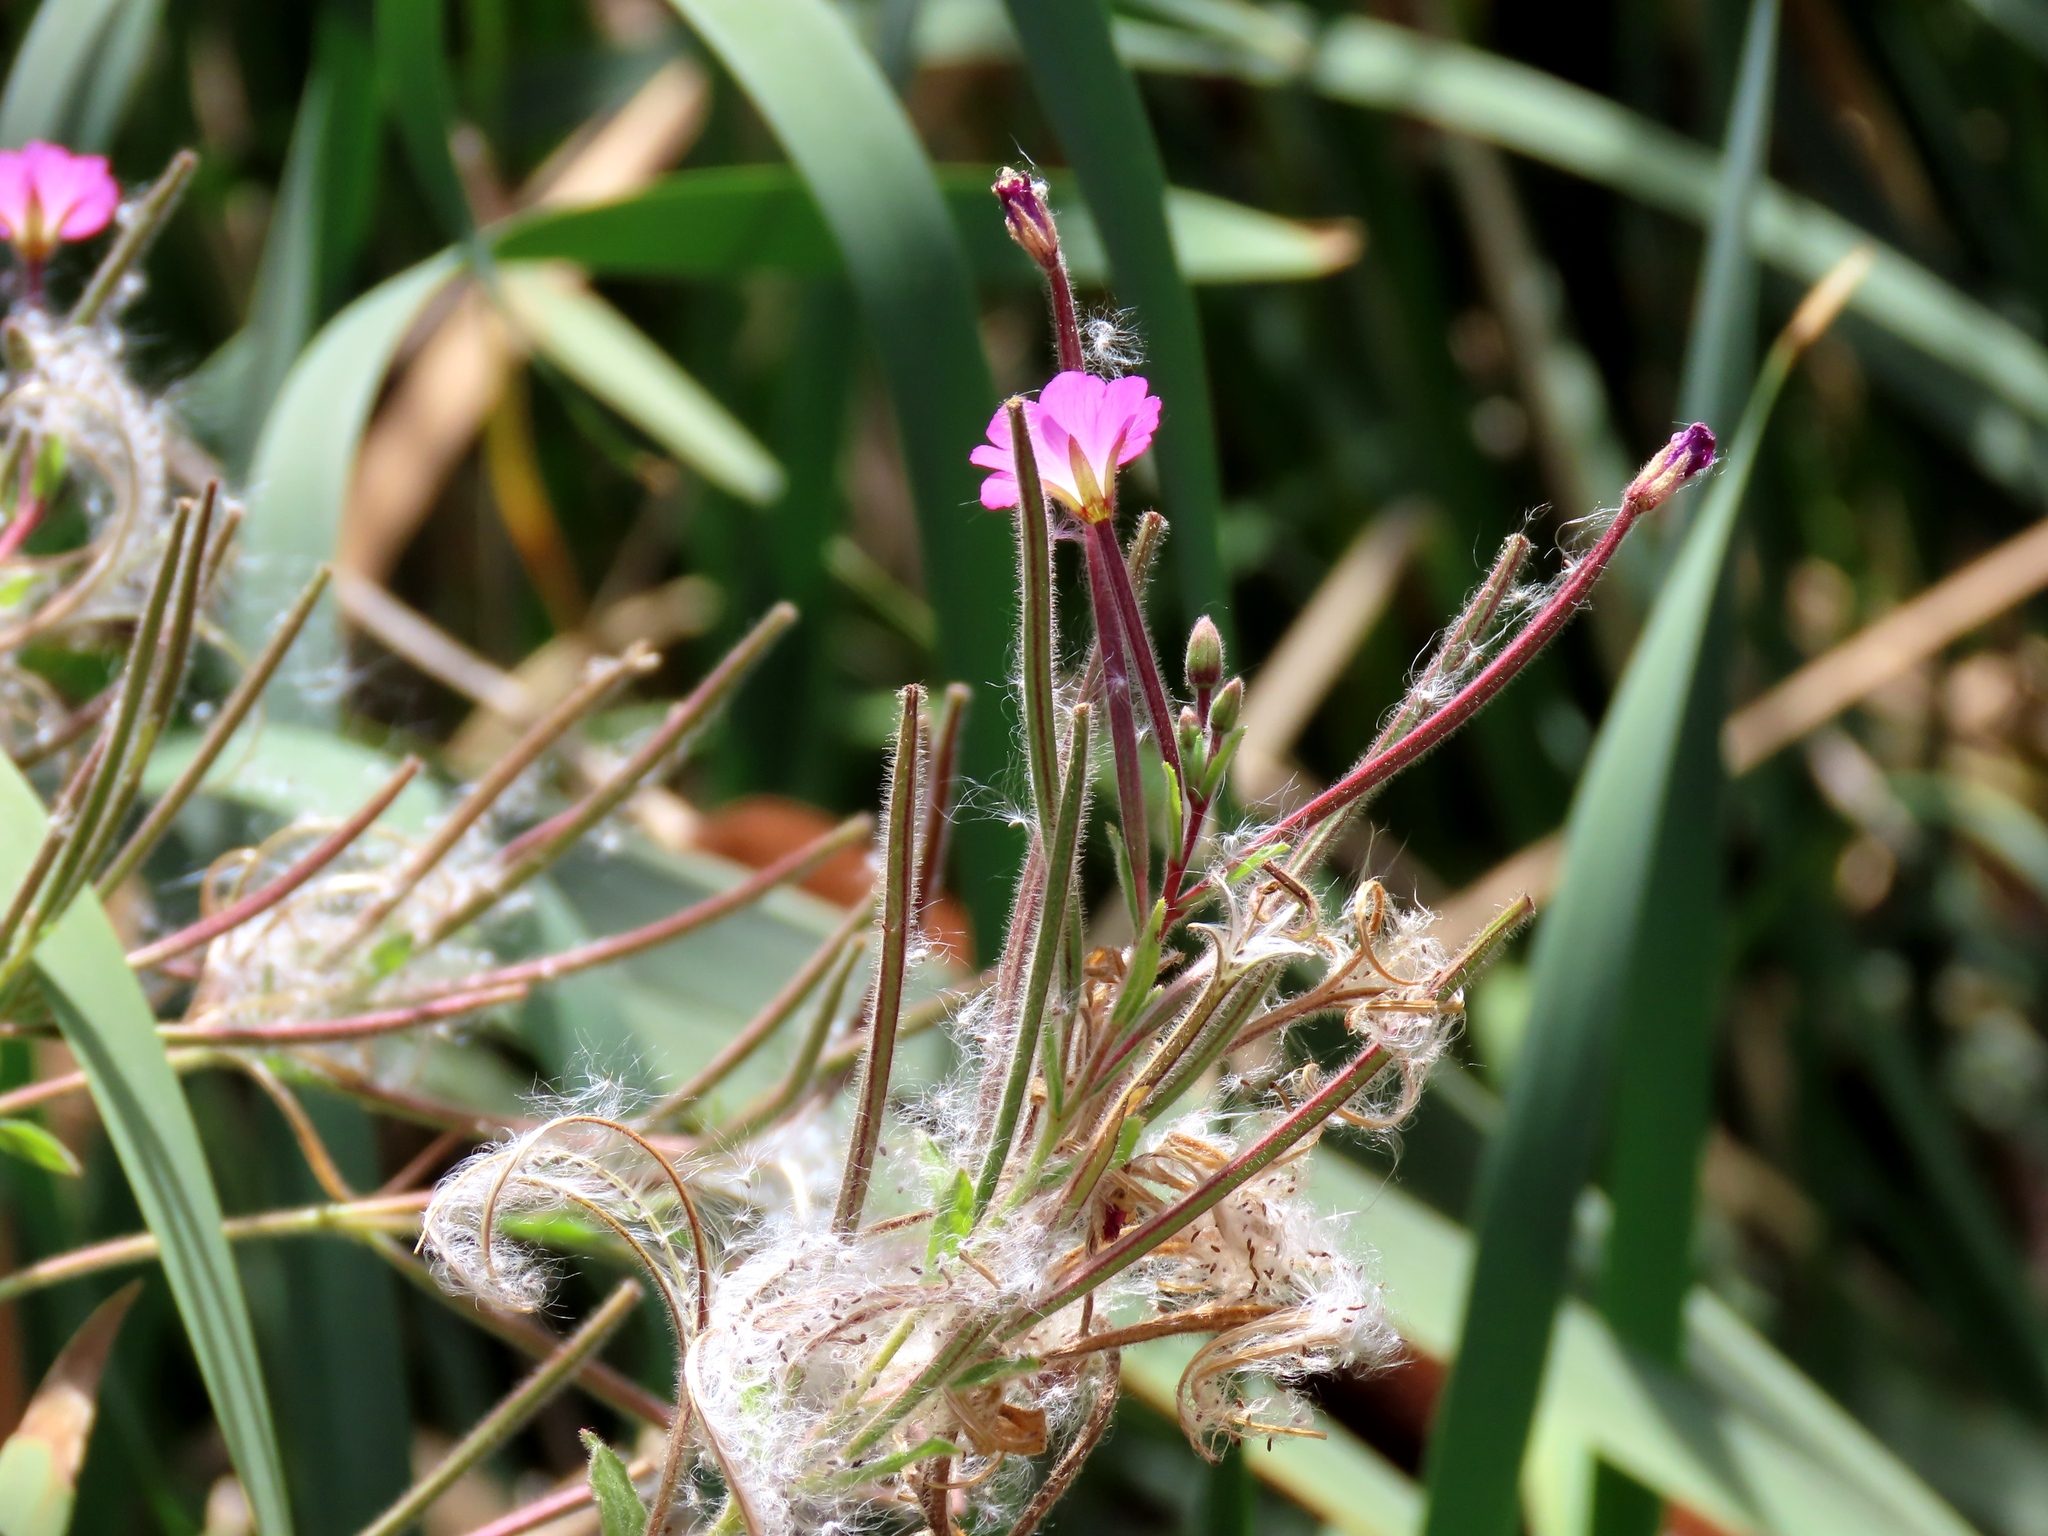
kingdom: Plantae
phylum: Tracheophyta
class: Magnoliopsida
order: Myrtales
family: Onagraceae
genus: Epilobium
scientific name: Epilobium hirsutum
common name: Great willowherb
